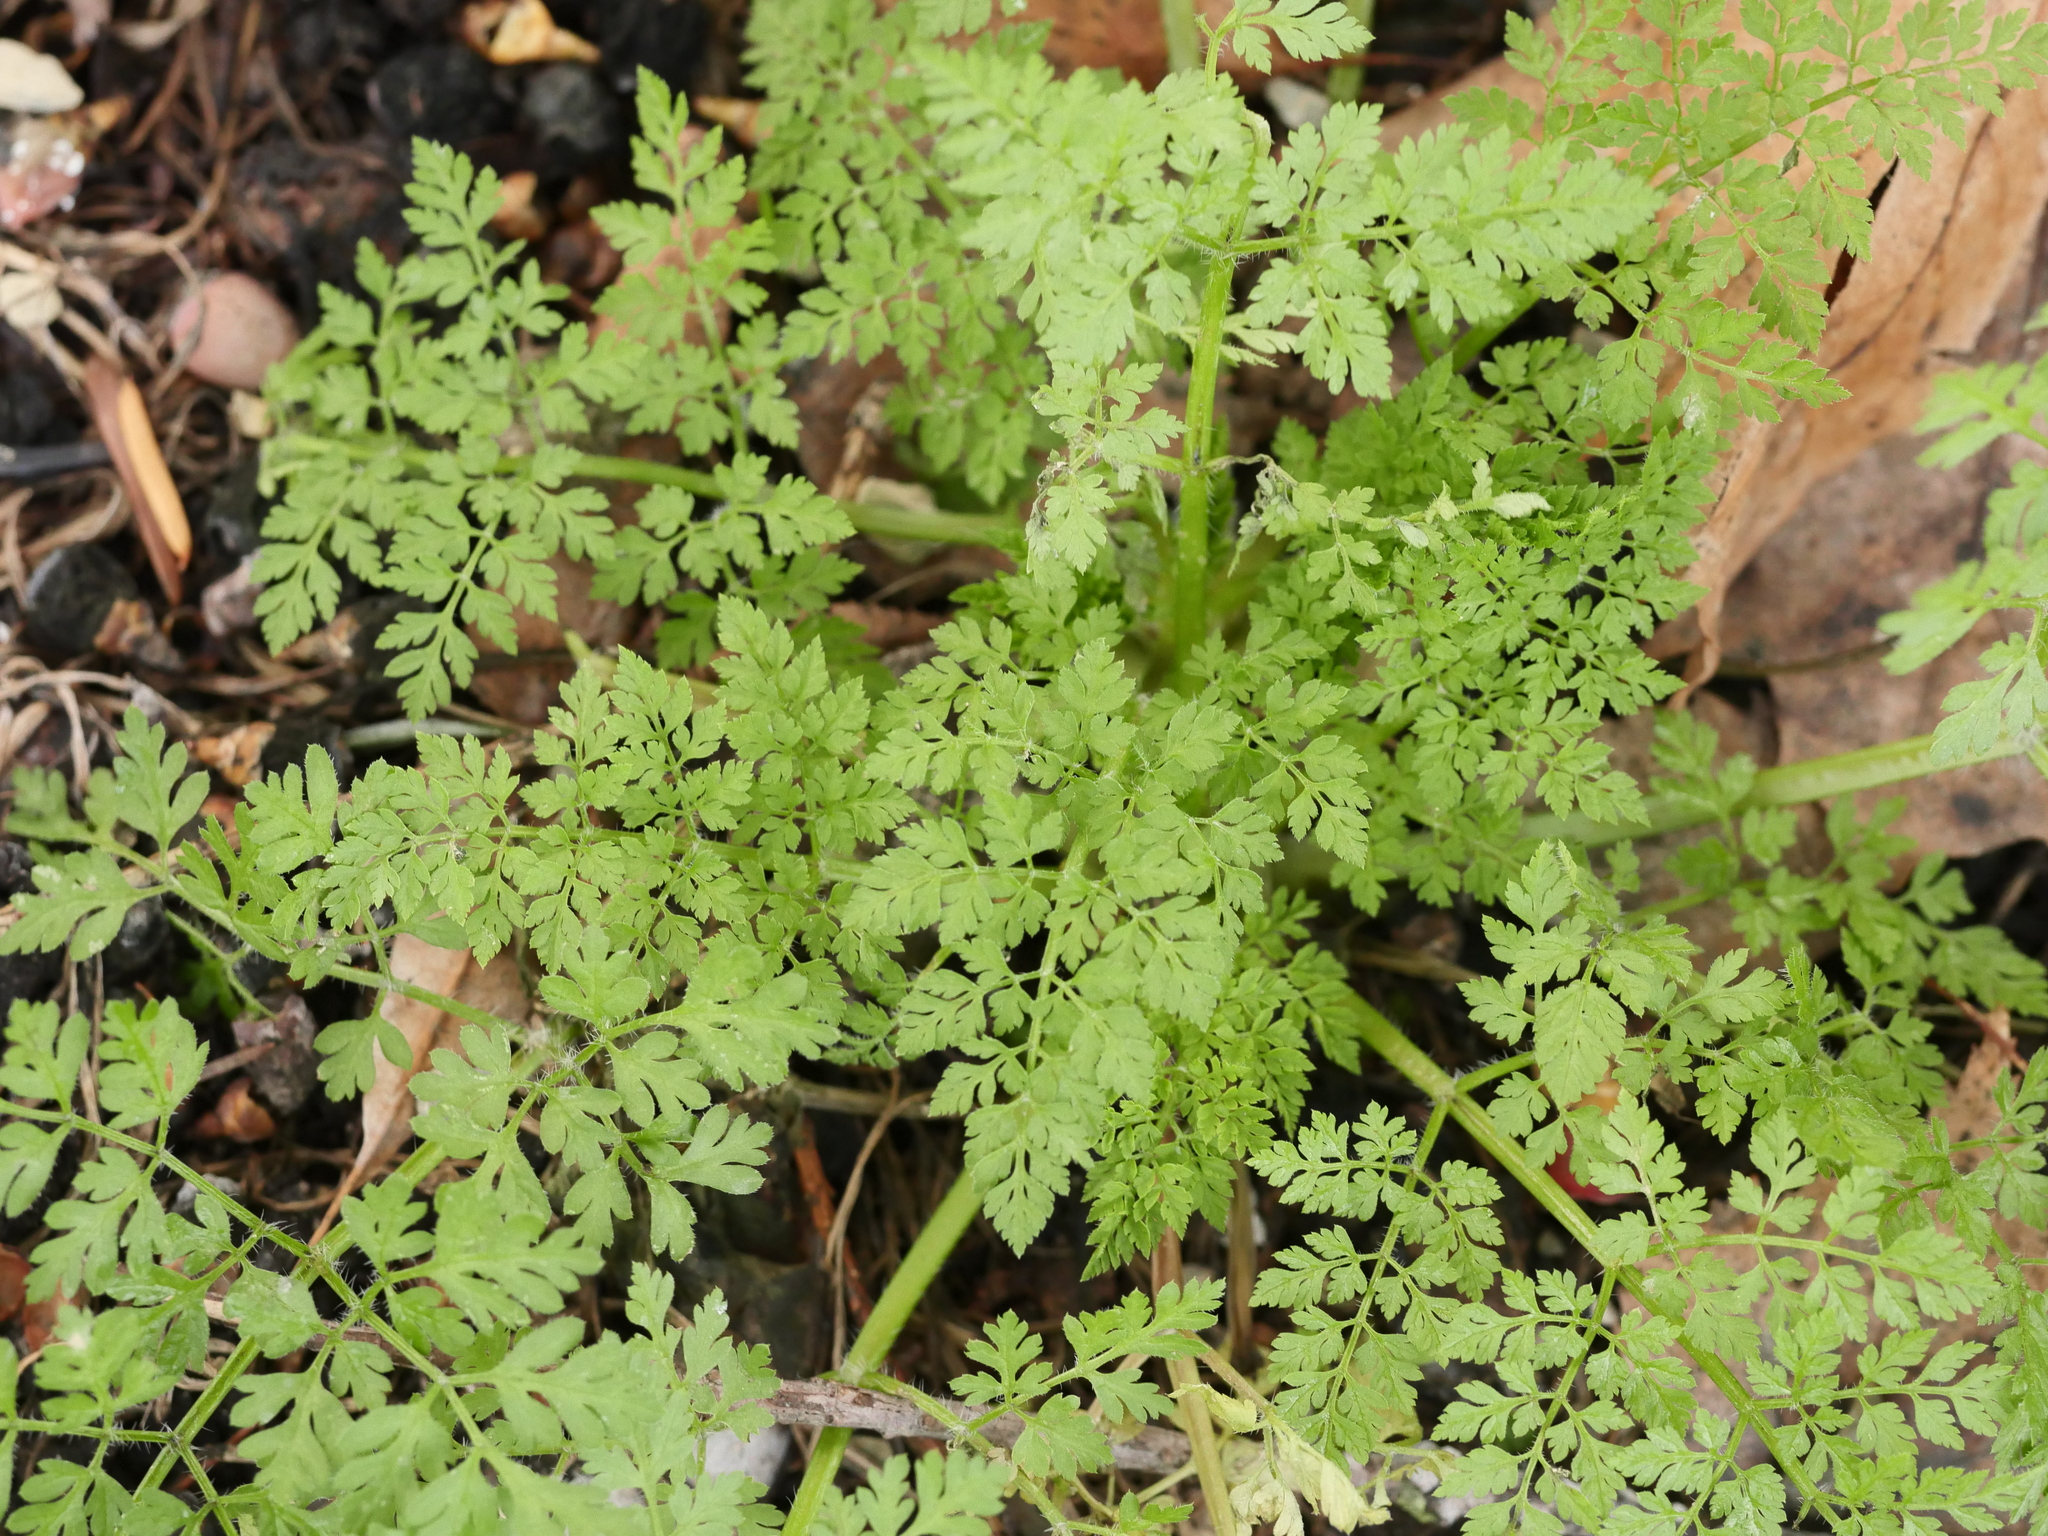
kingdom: Plantae
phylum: Tracheophyta
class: Magnoliopsida
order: Apiales
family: Apiaceae
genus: Anthriscus
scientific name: Anthriscus caucalis
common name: Bur chervil
